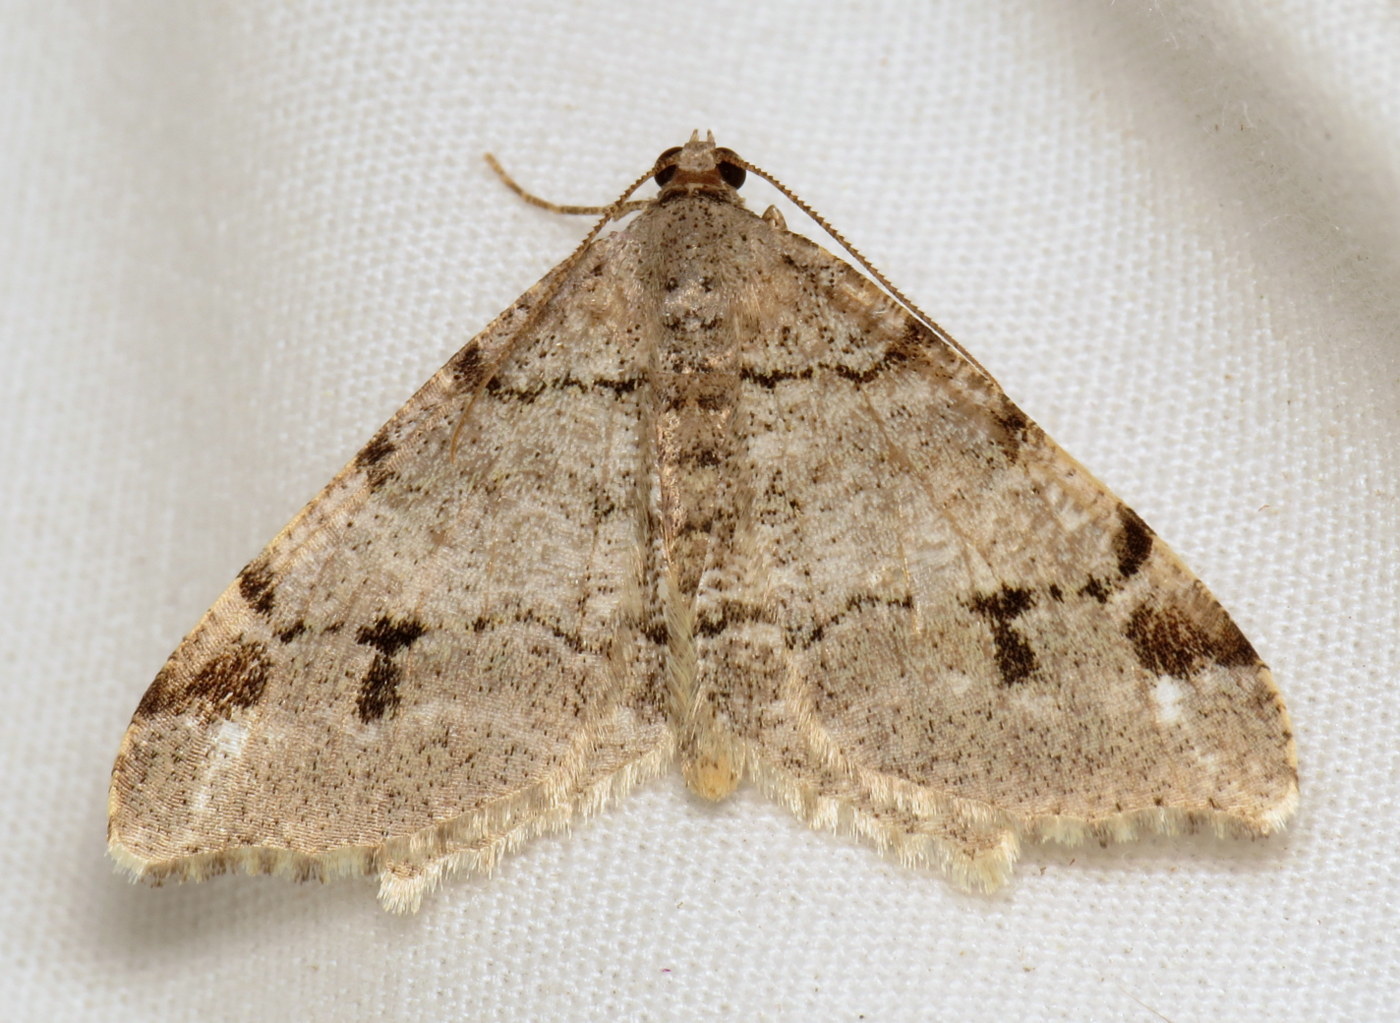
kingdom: Animalia
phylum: Arthropoda
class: Insecta
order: Lepidoptera
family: Geometridae
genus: Macaria
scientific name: Macaria fissinotata
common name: Hemlock angle
